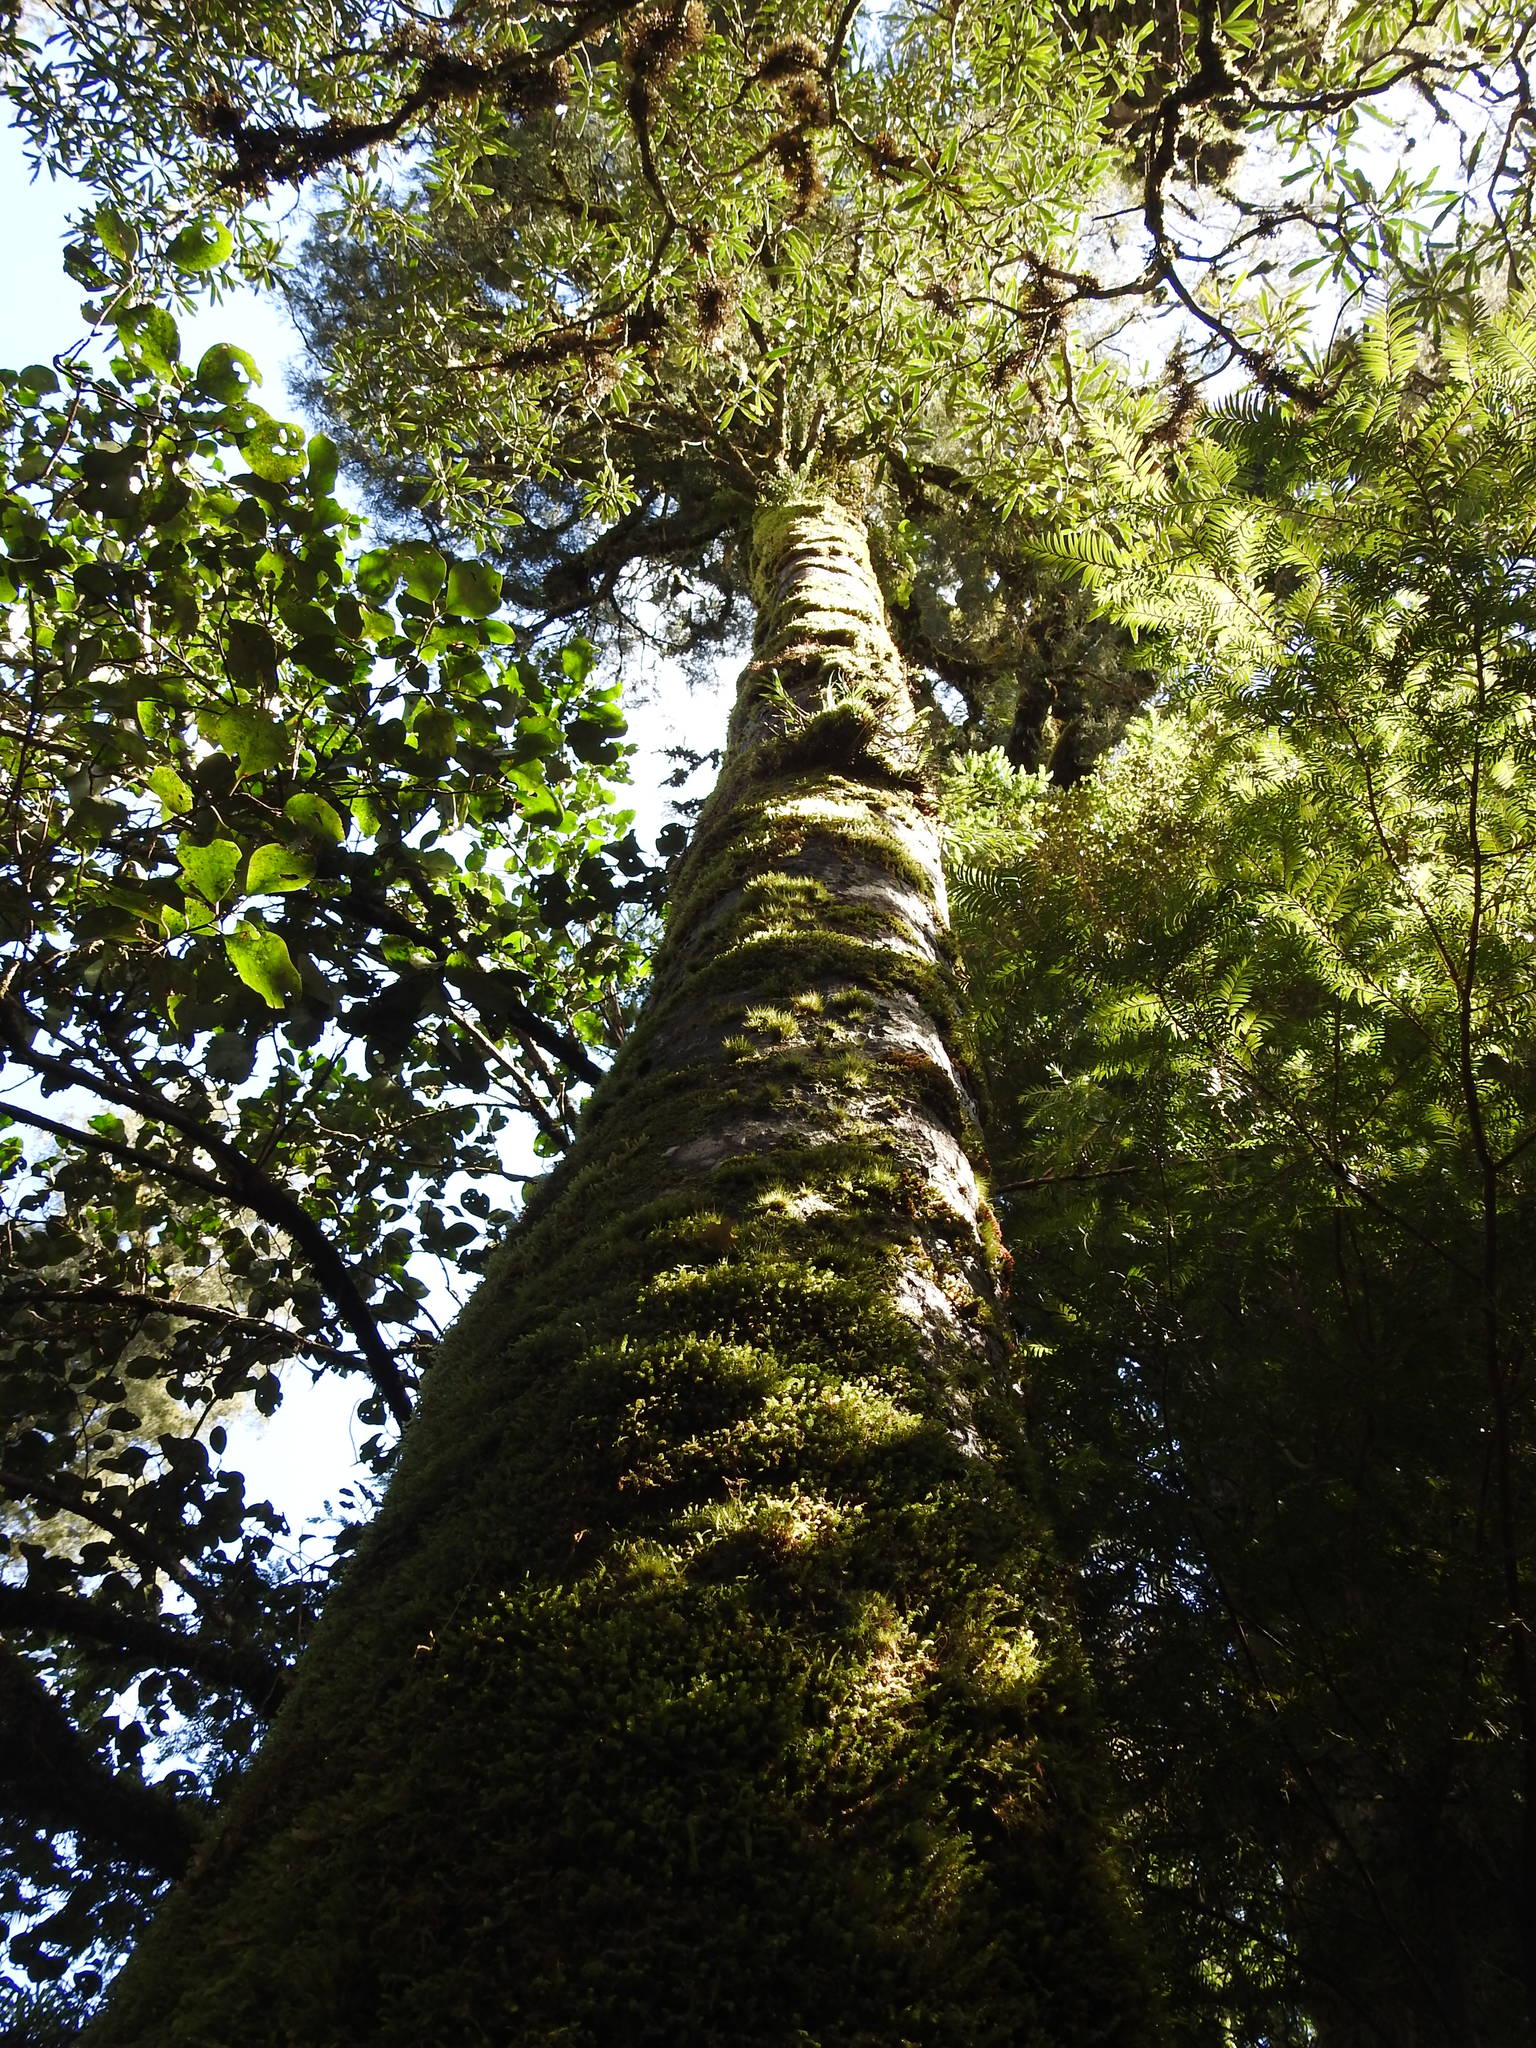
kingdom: Plantae
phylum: Tracheophyta
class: Pinopsida
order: Pinales
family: Podocarpaceae
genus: Dacrycarpus
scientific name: Dacrycarpus dacrydioides
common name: White pine
